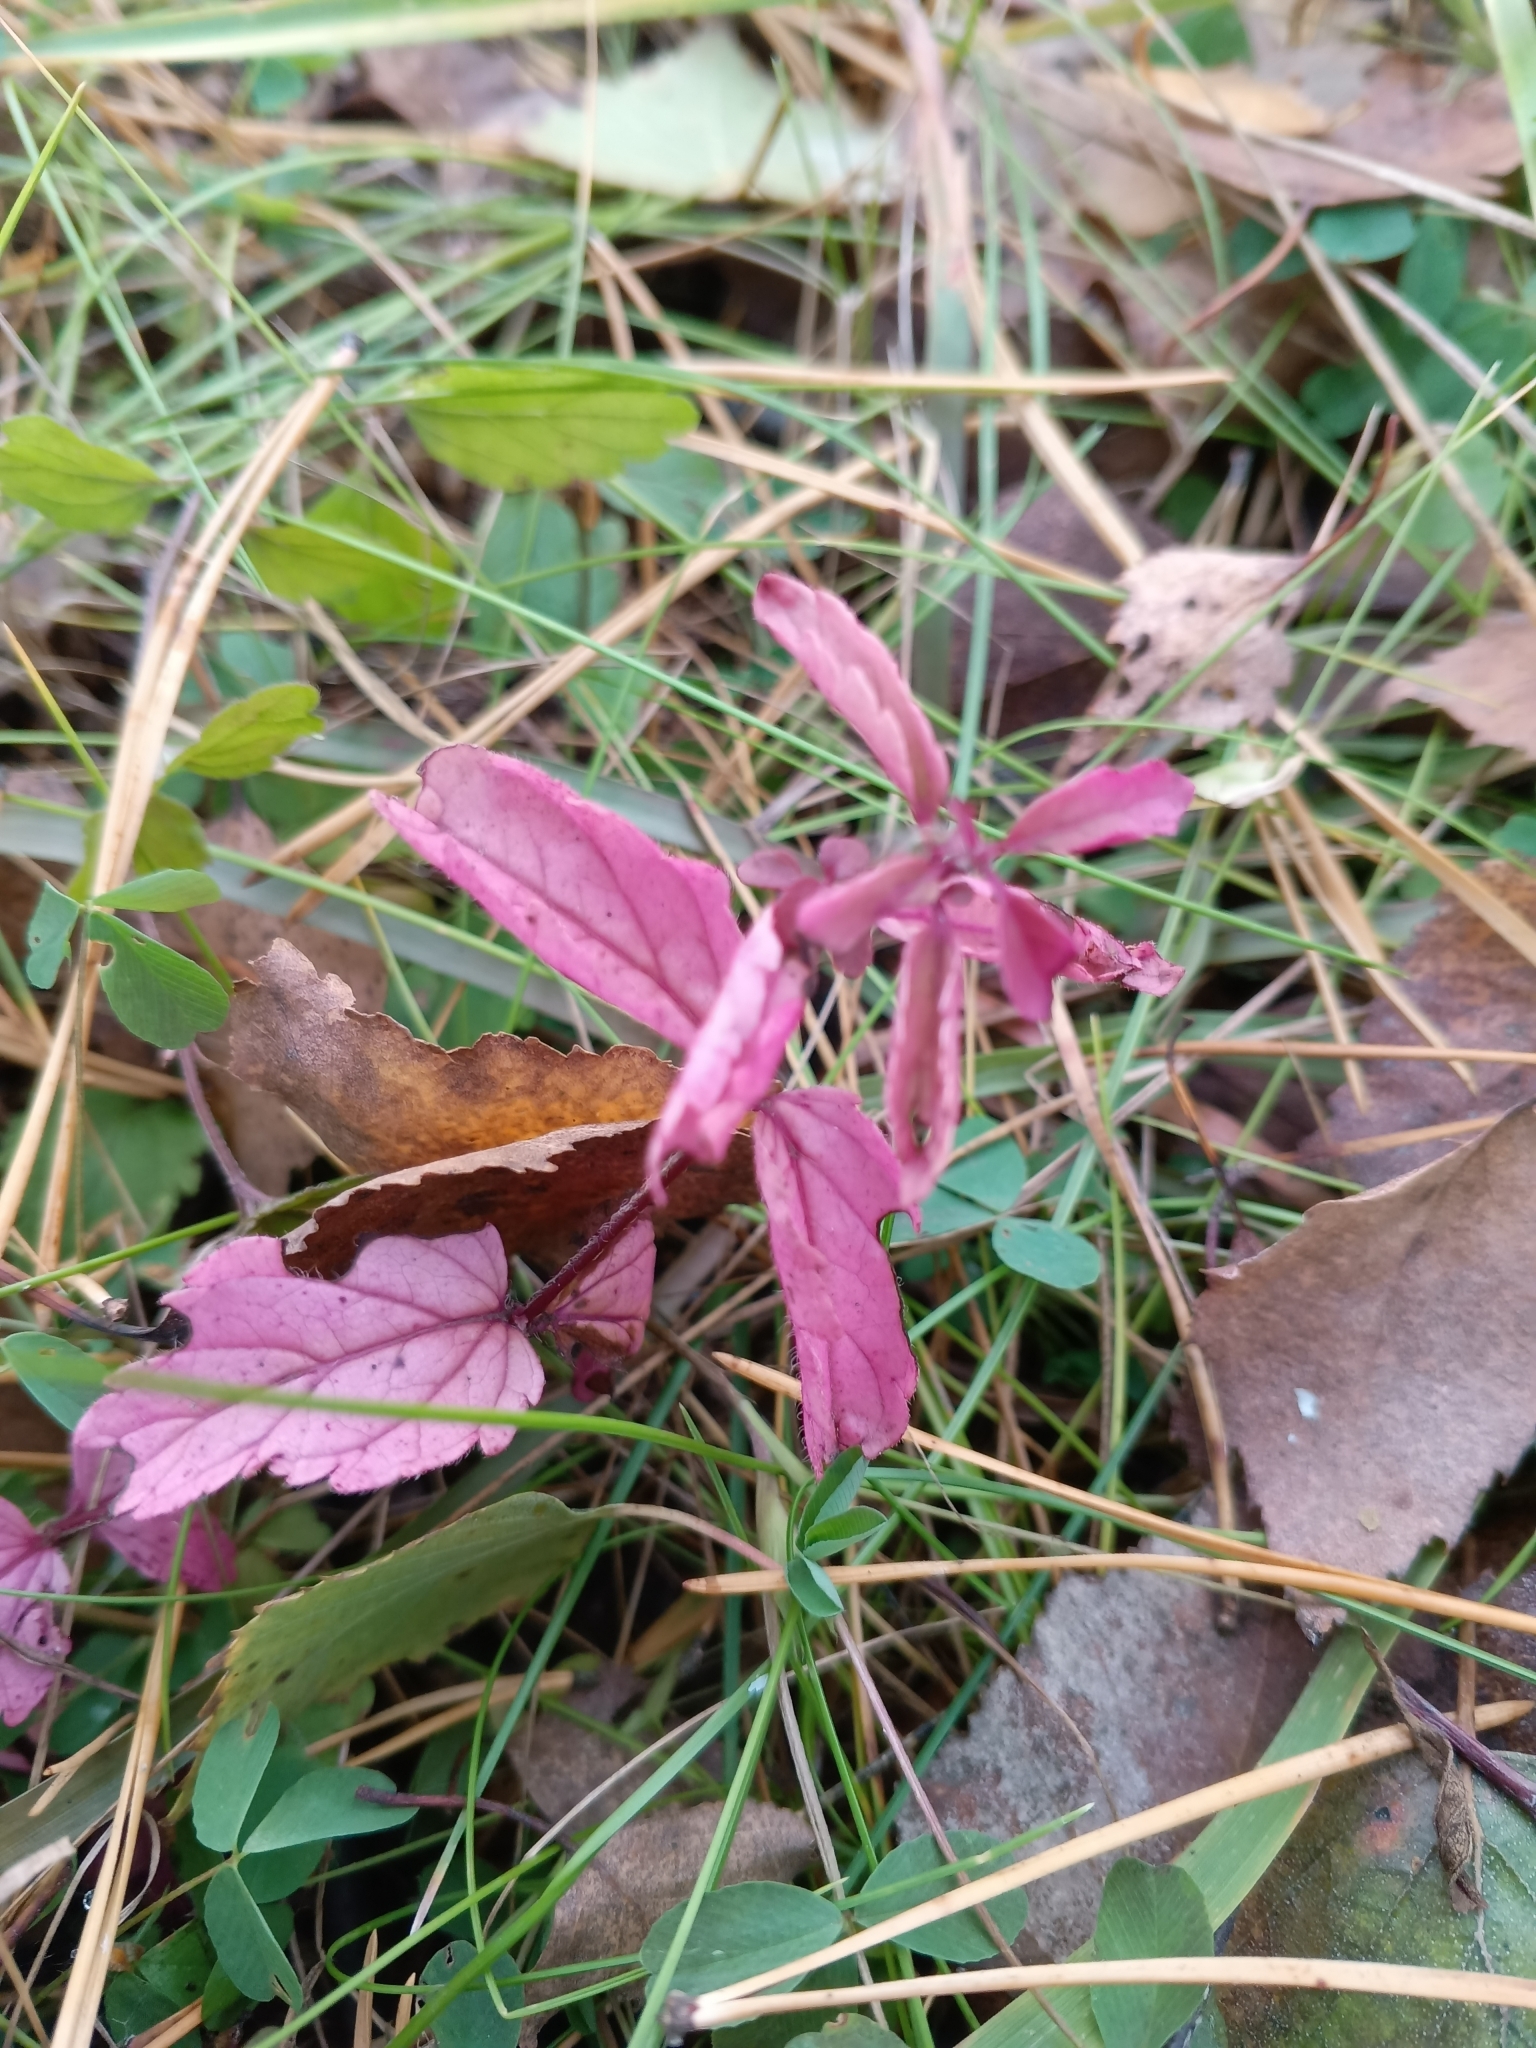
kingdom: Plantae
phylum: Tracheophyta
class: Magnoliopsida
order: Lamiales
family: Plantaginaceae
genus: Veronica
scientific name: Veronica chamaedrys
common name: Germander speedwell
